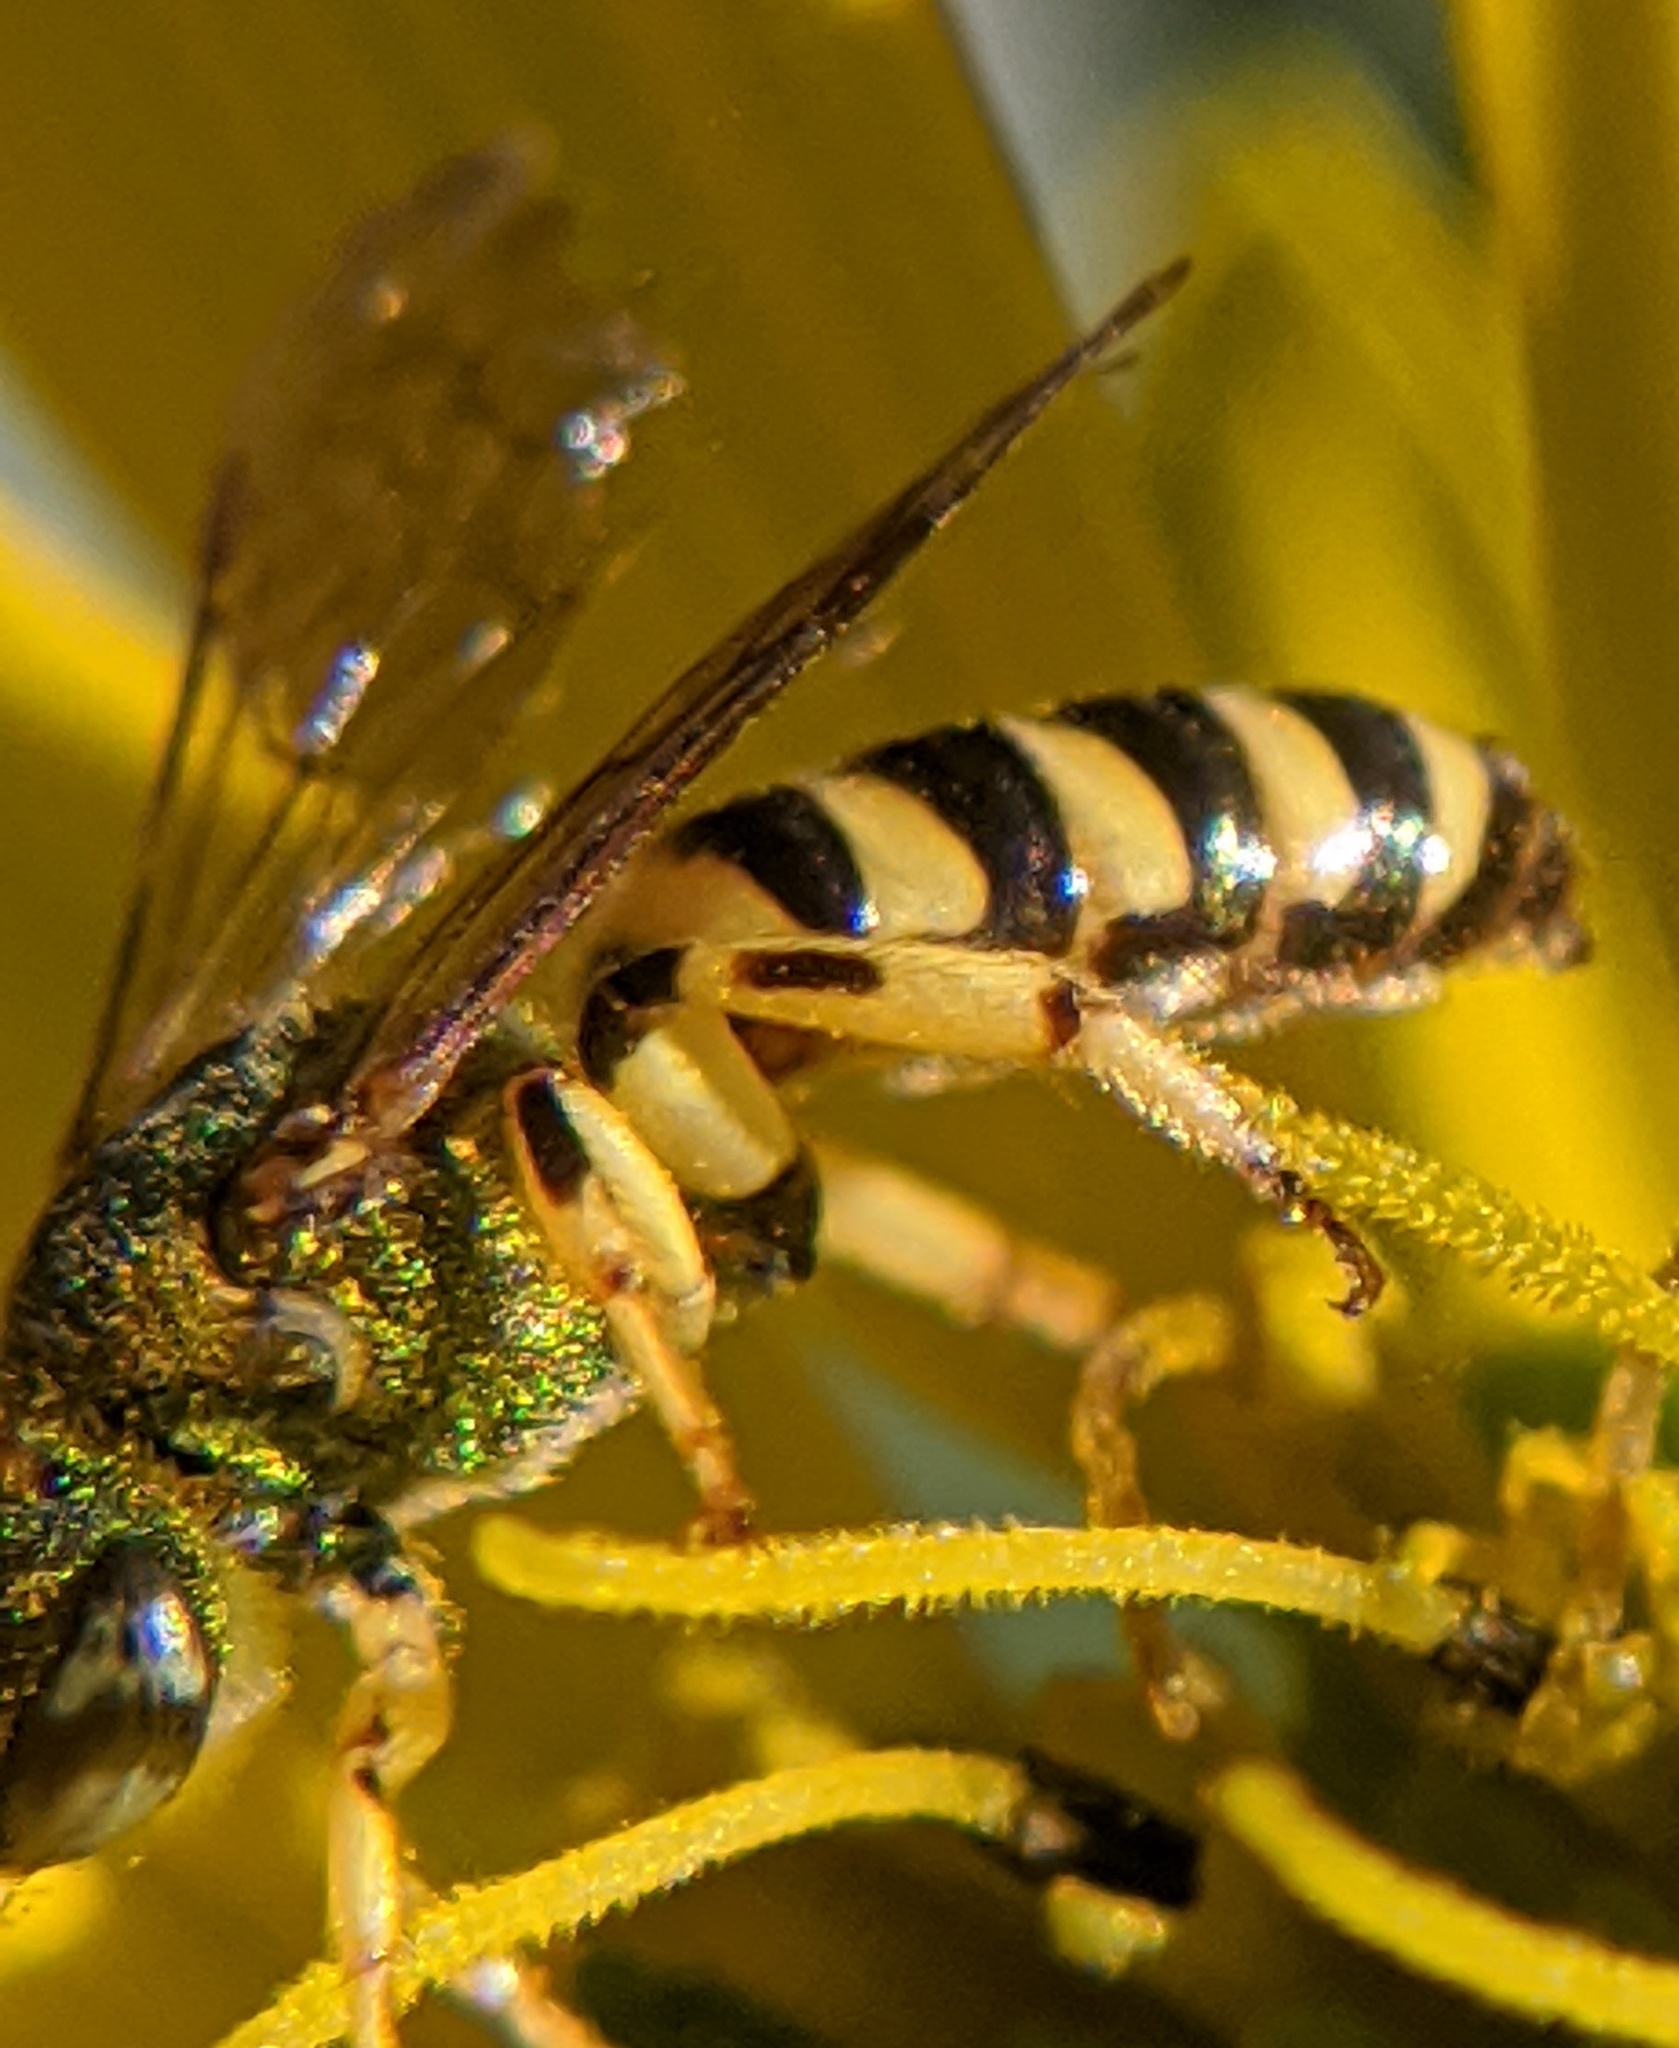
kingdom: Animalia
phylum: Arthropoda
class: Insecta
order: Hymenoptera
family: Halictidae
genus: Agapostemon
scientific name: Agapostemon virescens
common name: Bicolored striped sweat bee
